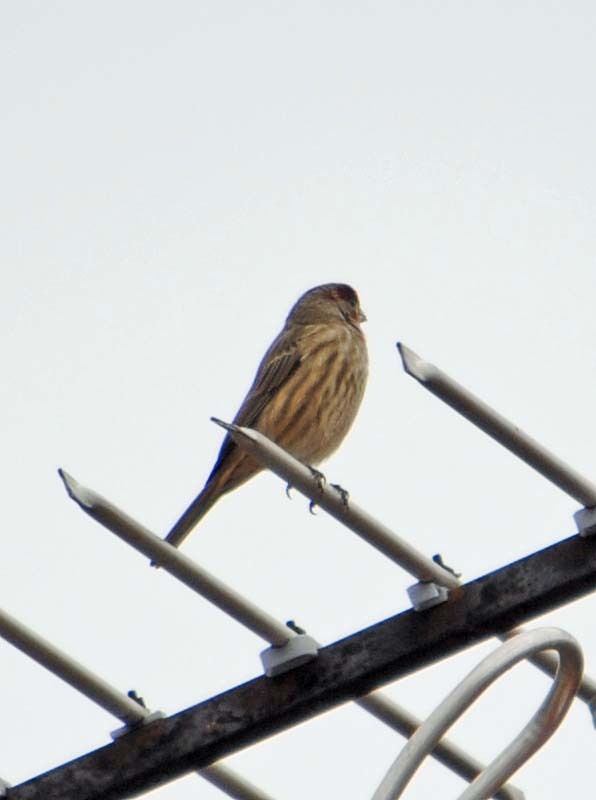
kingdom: Animalia
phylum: Chordata
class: Aves
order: Passeriformes
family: Fringillidae
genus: Haemorhous
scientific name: Haemorhous mexicanus
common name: House finch
